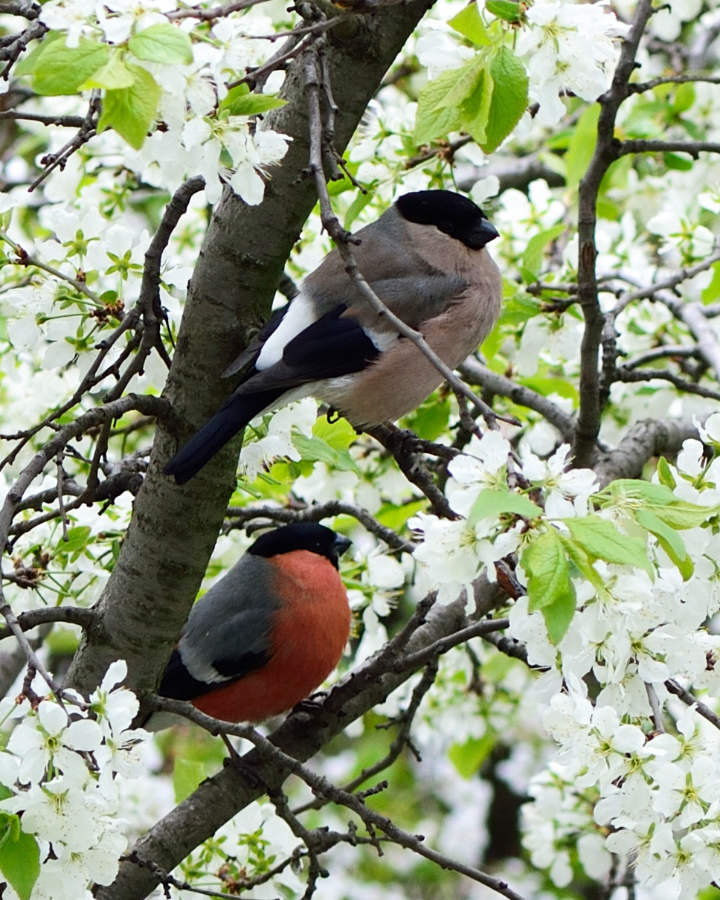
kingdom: Animalia
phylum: Chordata
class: Aves
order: Passeriformes
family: Fringillidae
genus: Pyrrhula
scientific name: Pyrrhula pyrrhula
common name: Eurasian bullfinch
